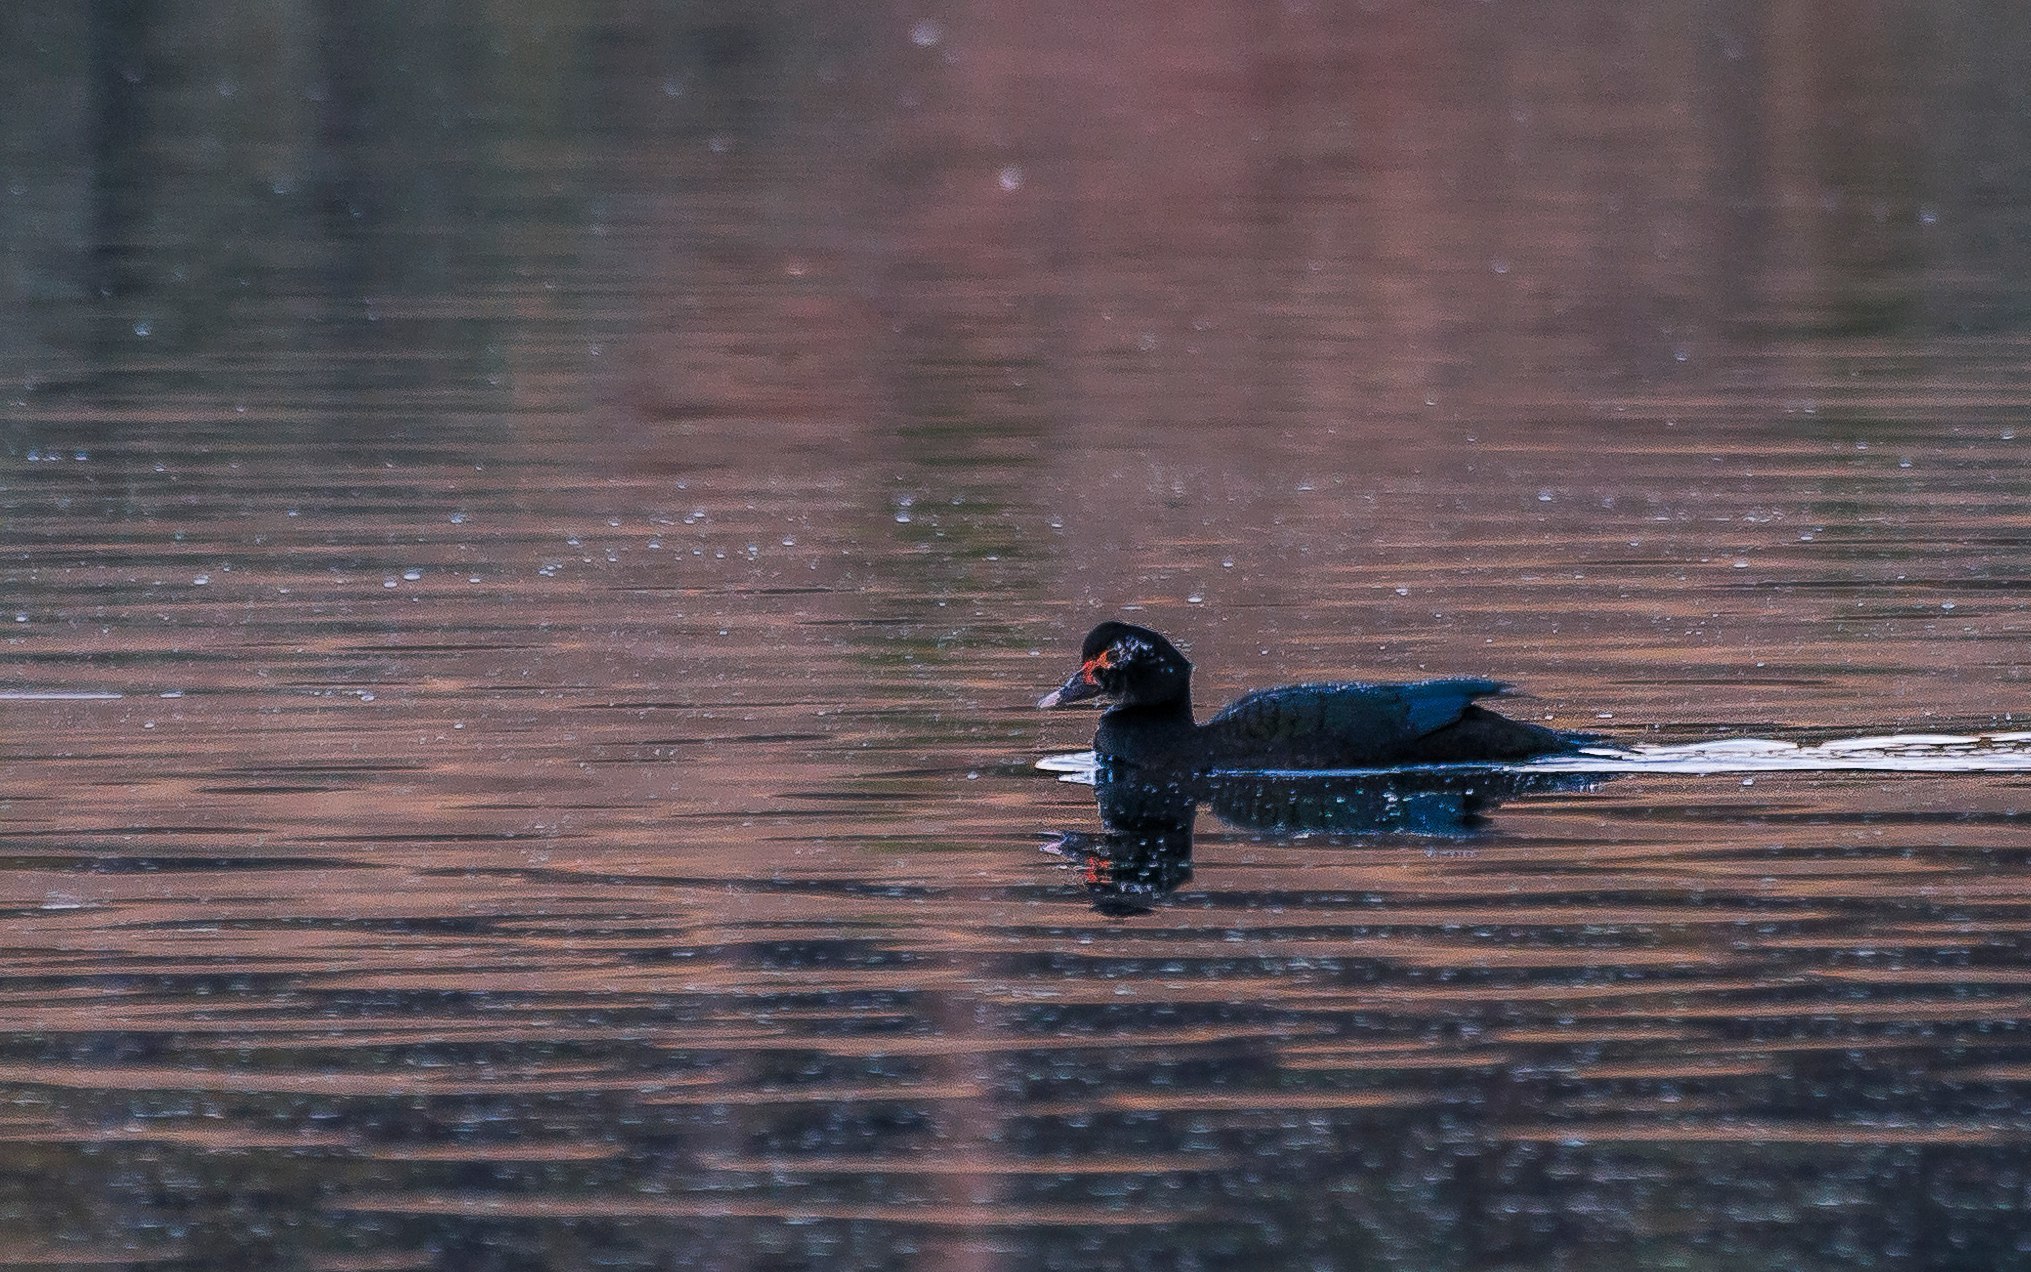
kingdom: Animalia
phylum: Chordata
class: Aves
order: Anseriformes
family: Anatidae
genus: Cairina
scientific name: Cairina moschata
